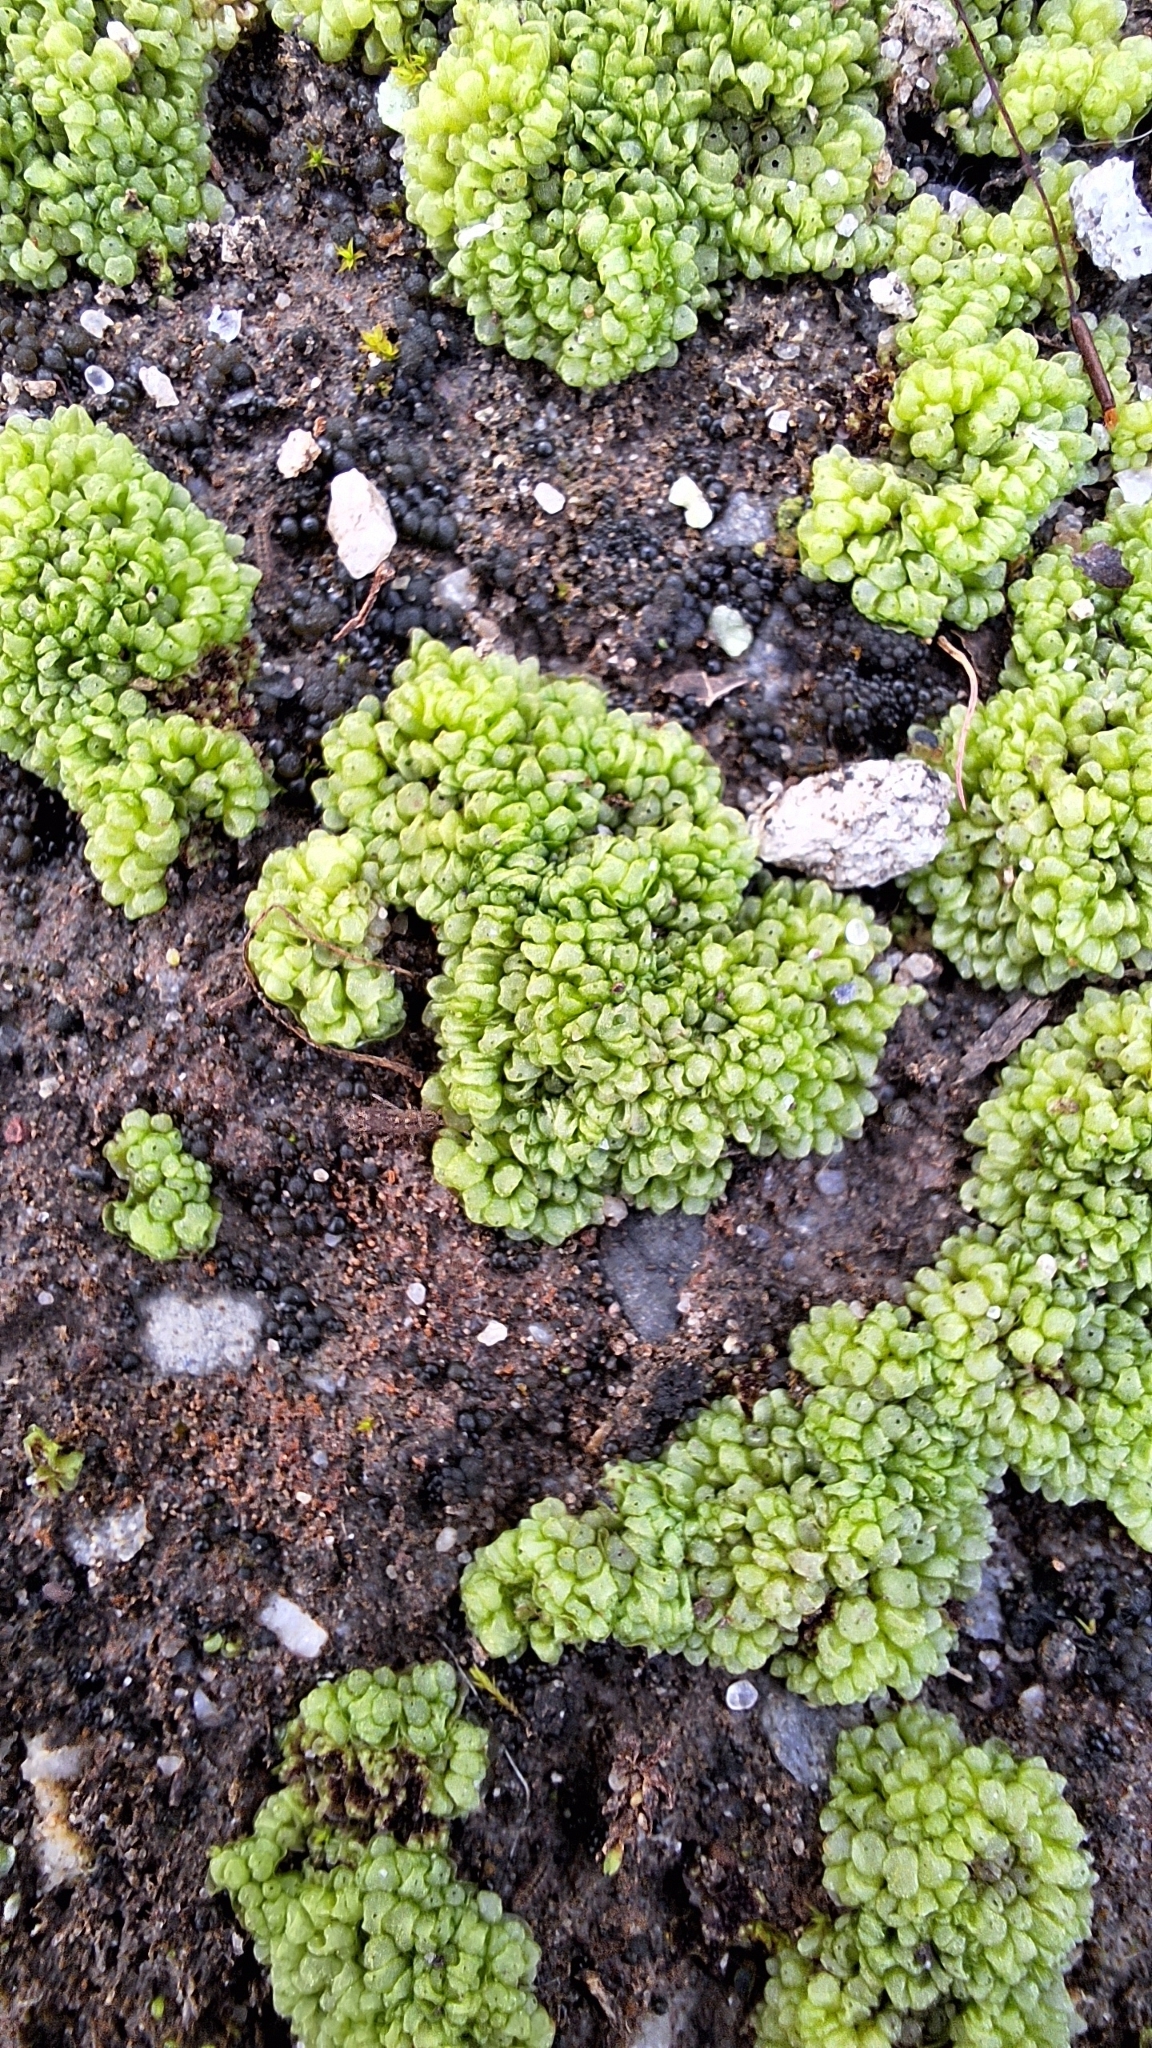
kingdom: Plantae
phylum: Marchantiophyta
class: Marchantiopsida
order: Sphaerocarpales
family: Sphaerocarpaceae
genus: Sphaerocarpos
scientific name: Sphaerocarpos texanus
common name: Texas balloonwort
